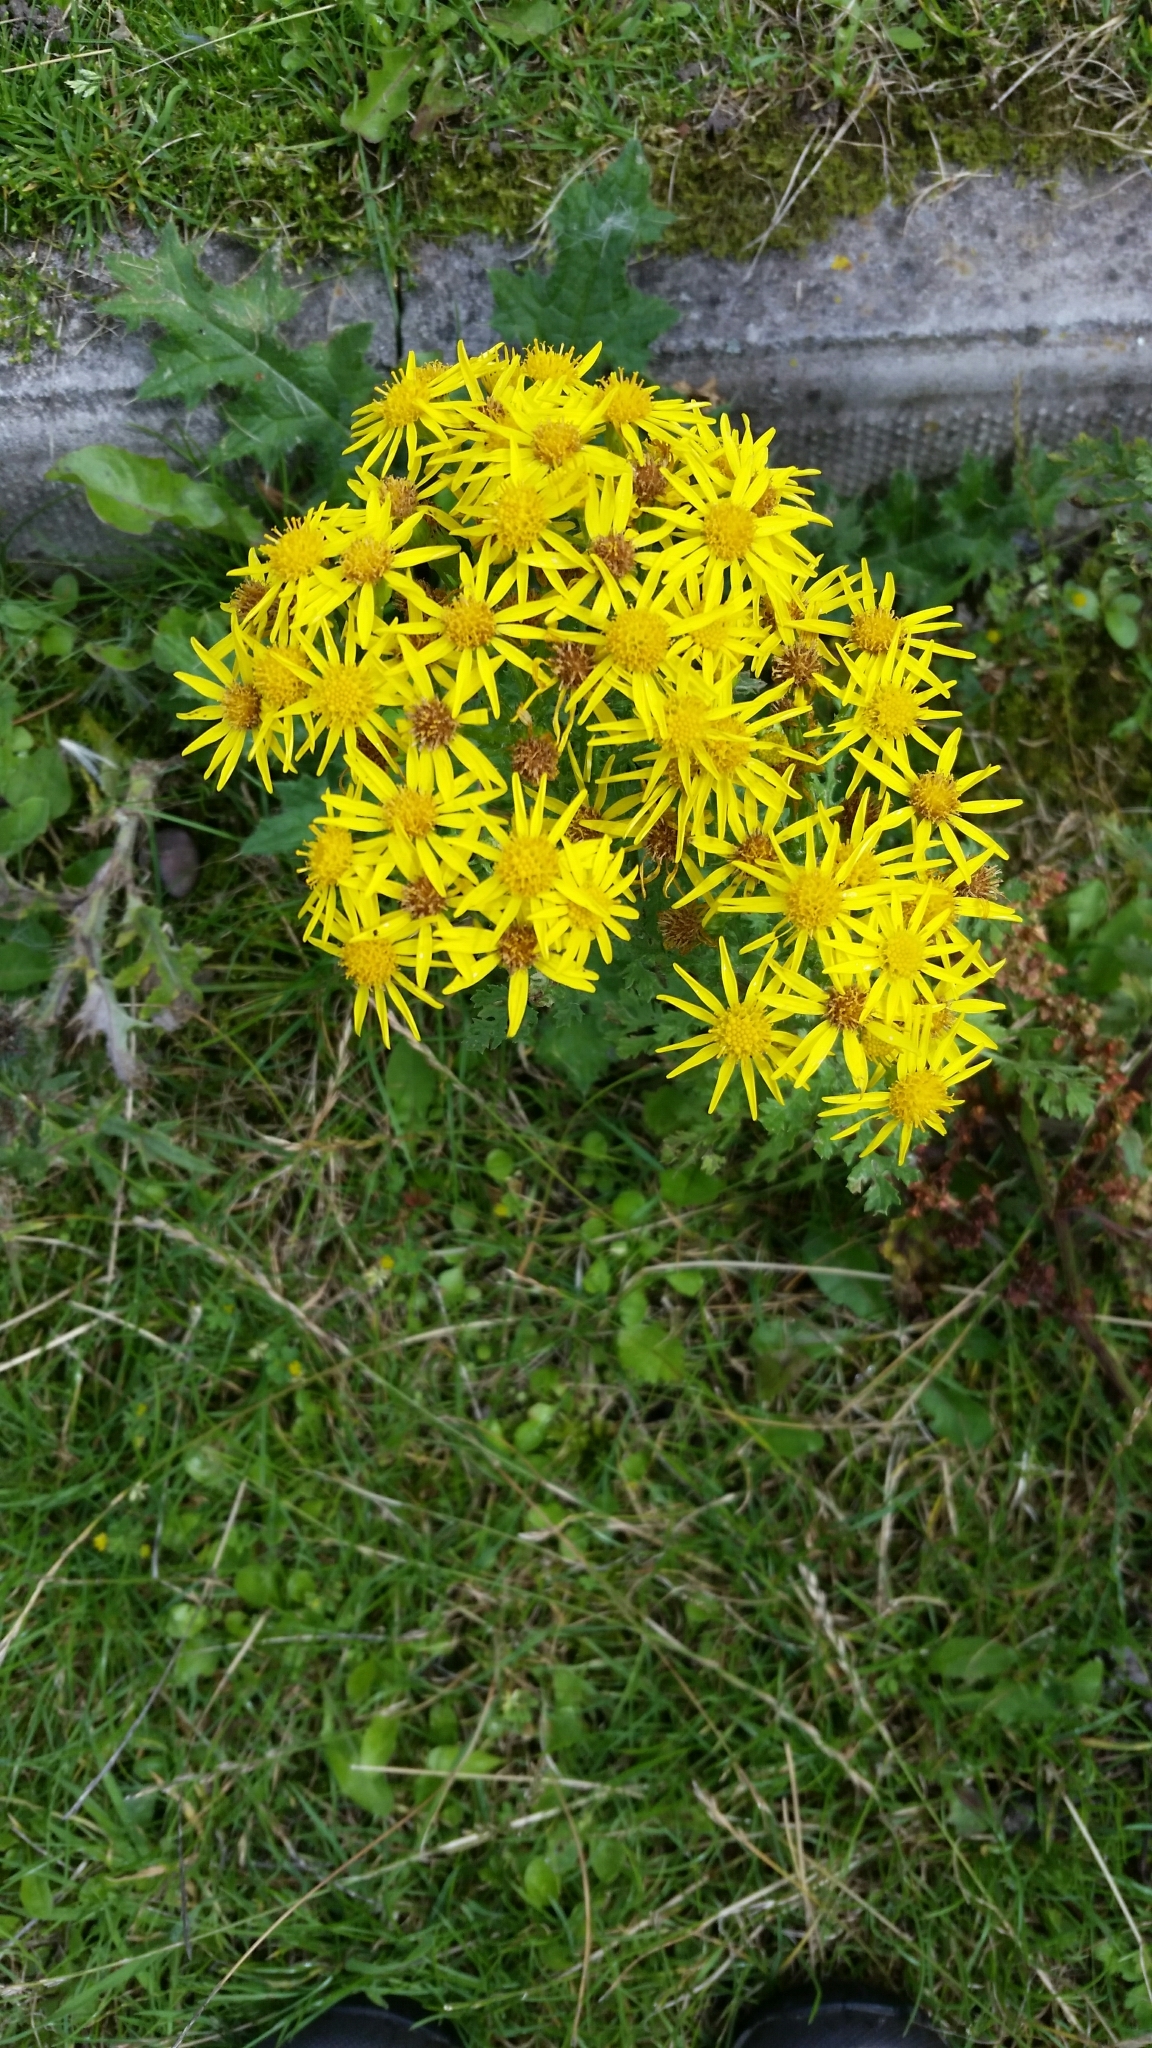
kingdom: Plantae
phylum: Tracheophyta
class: Magnoliopsida
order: Asterales
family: Asteraceae
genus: Jacobaea
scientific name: Jacobaea vulgaris
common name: Stinking willie
